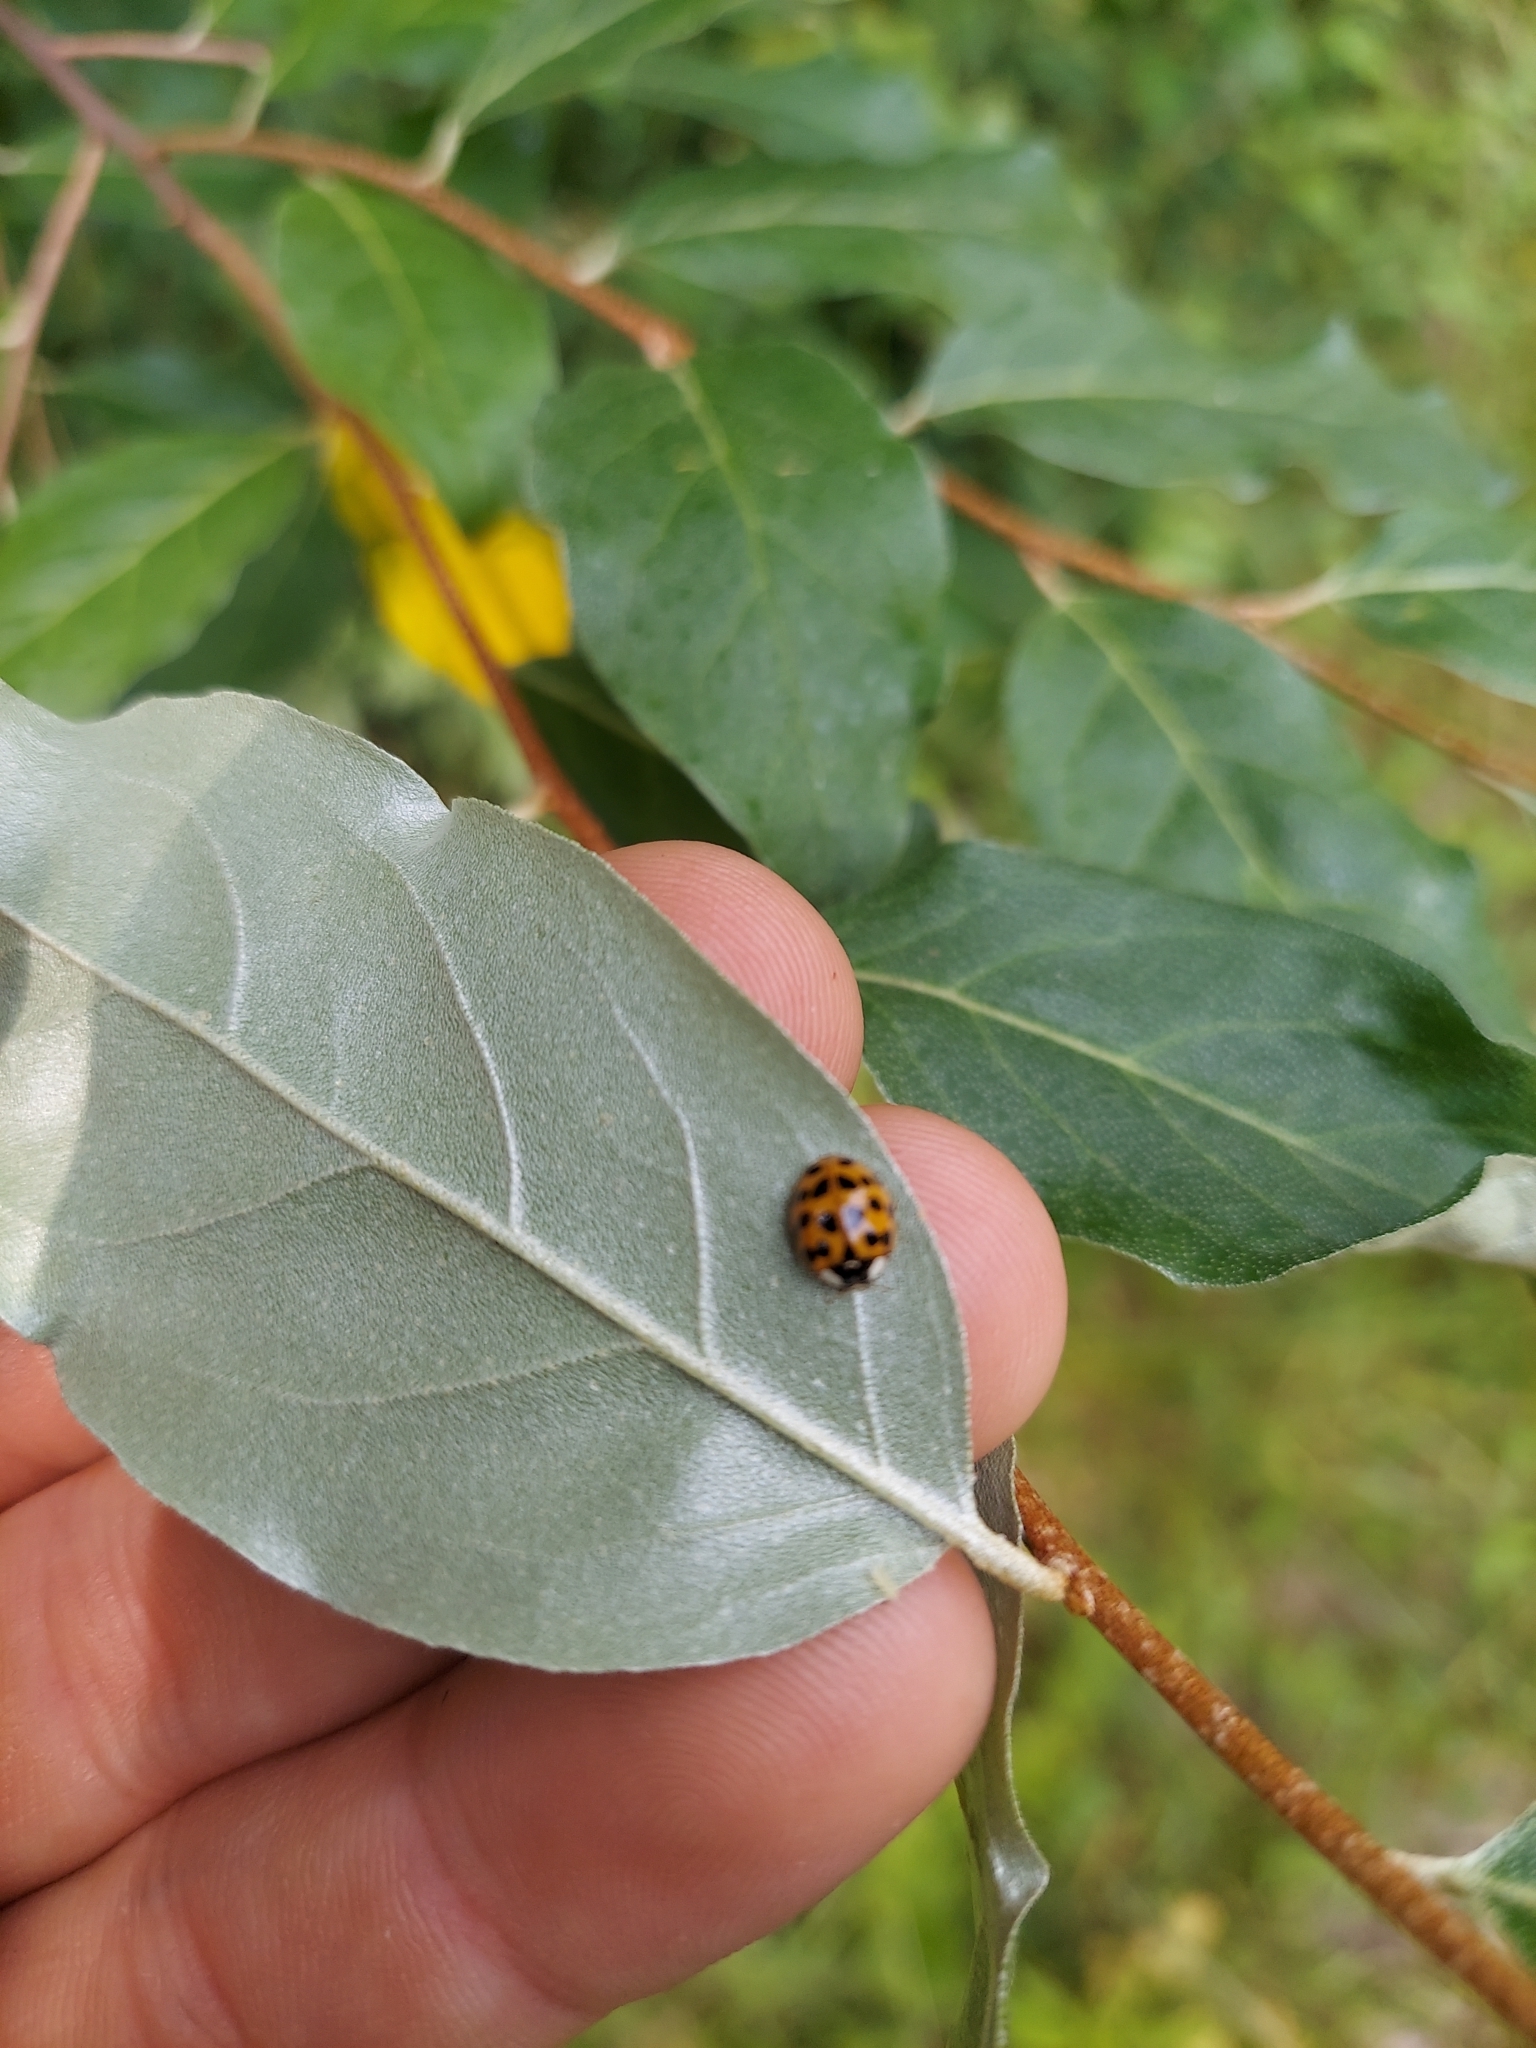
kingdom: Animalia
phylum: Arthropoda
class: Insecta
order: Coleoptera
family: Coccinellidae
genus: Harmonia
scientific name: Harmonia axyridis
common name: Harlequin ladybird
